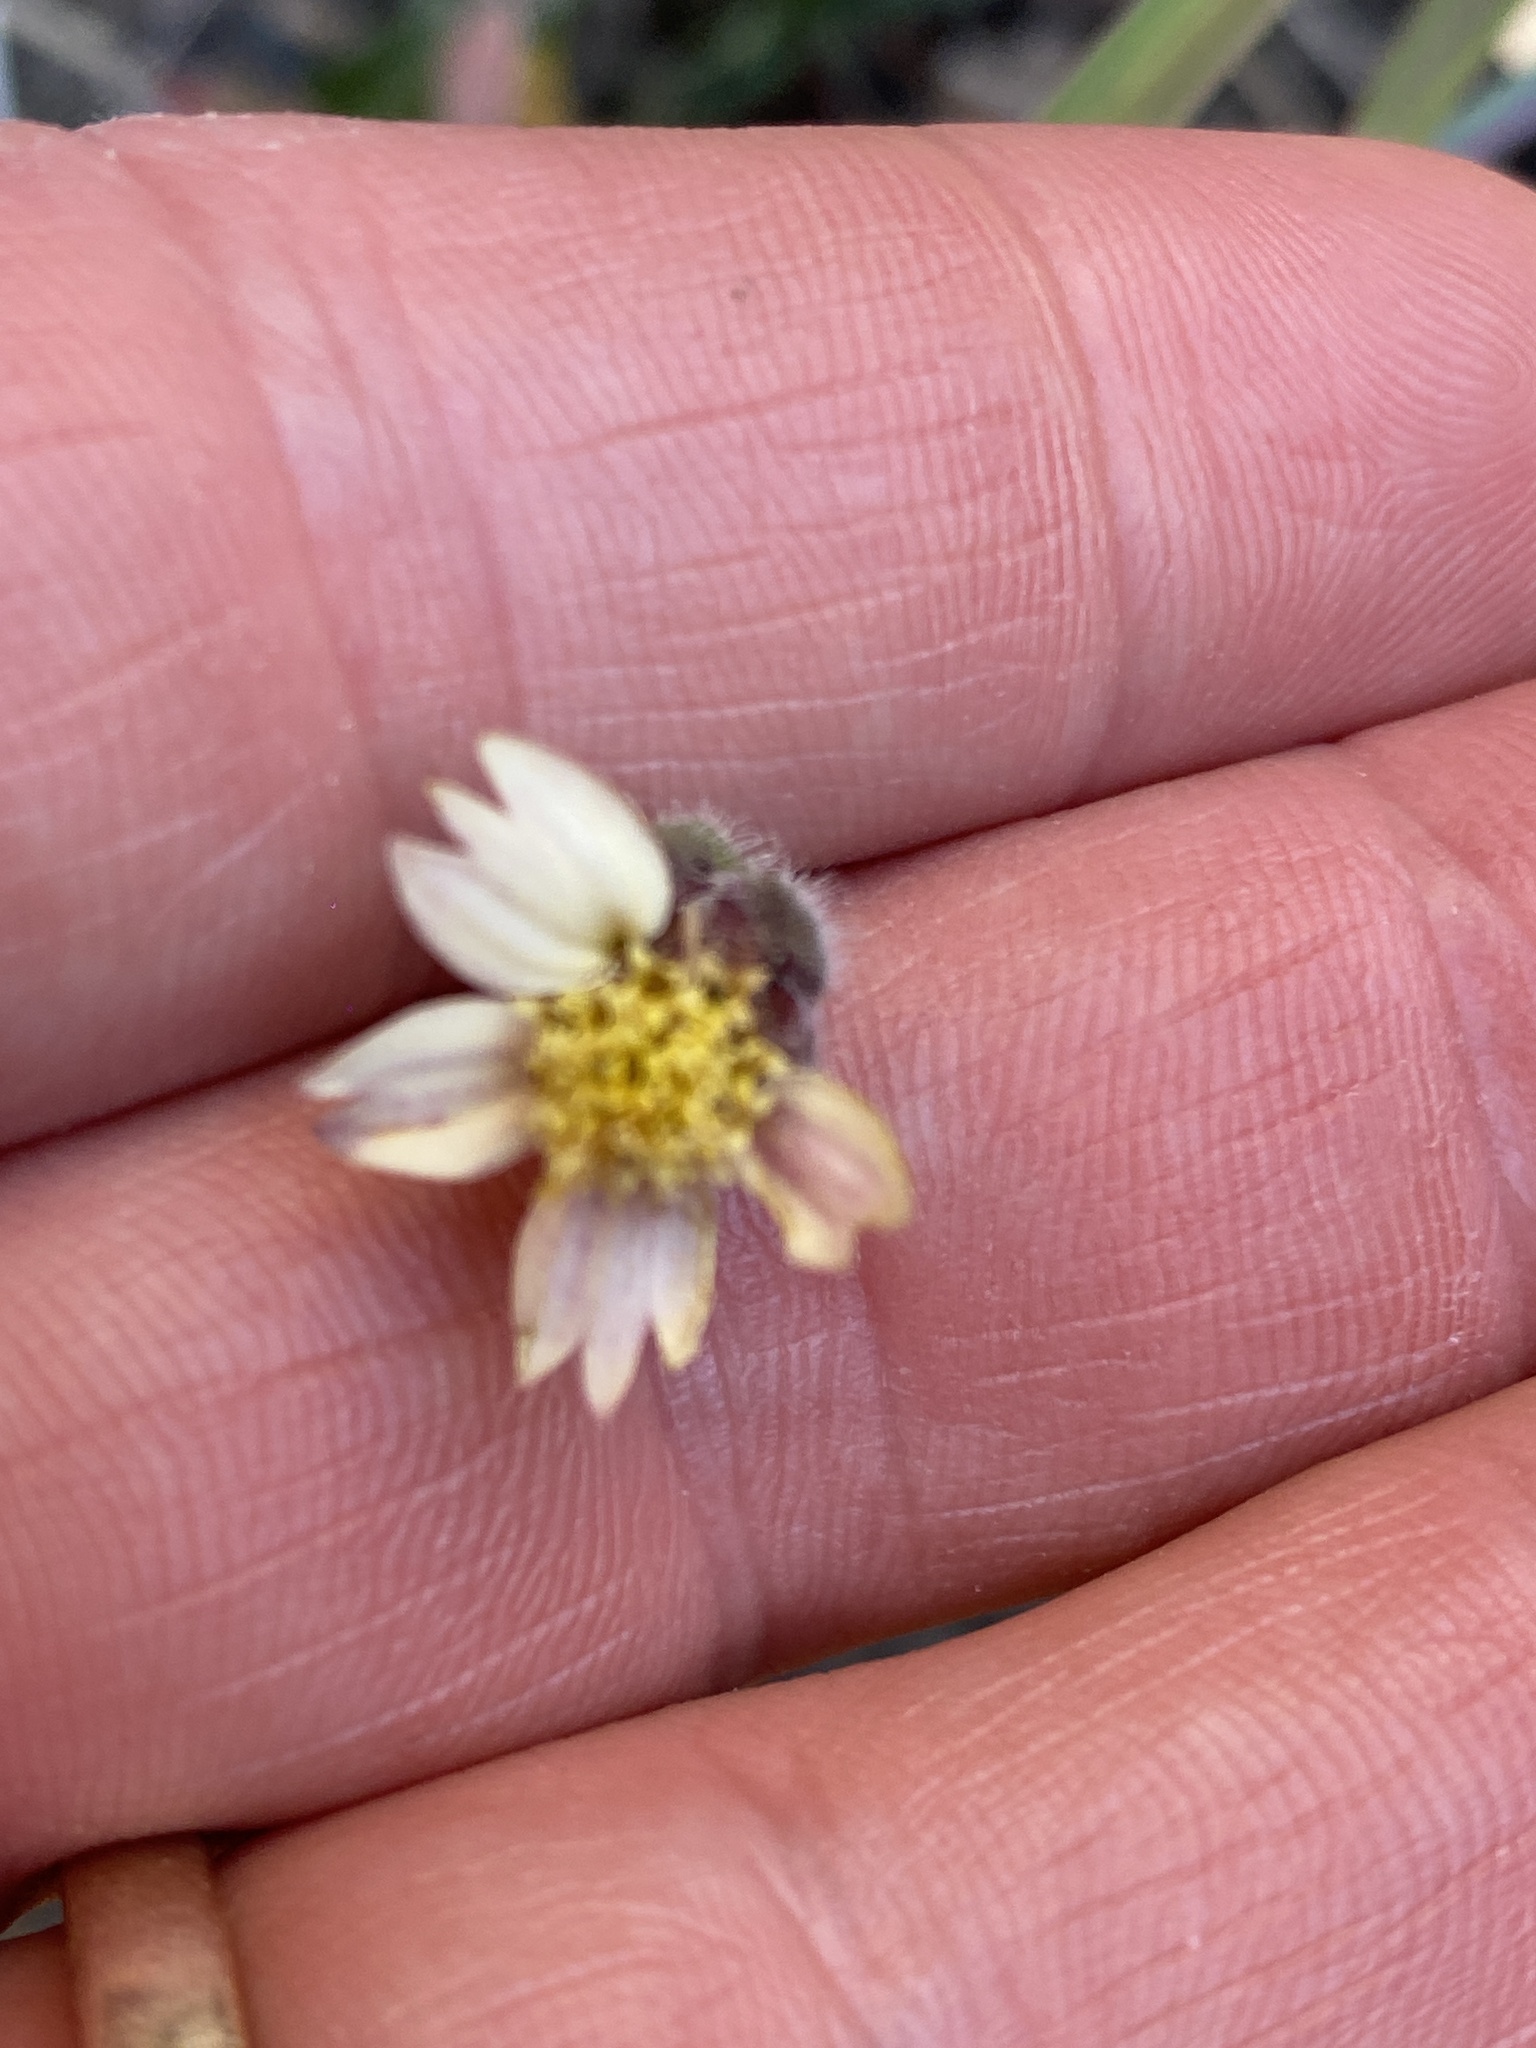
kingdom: Plantae
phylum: Tracheophyta
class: Magnoliopsida
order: Asterales
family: Asteraceae
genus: Tridax
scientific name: Tridax procumbens
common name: Coatbuttons
